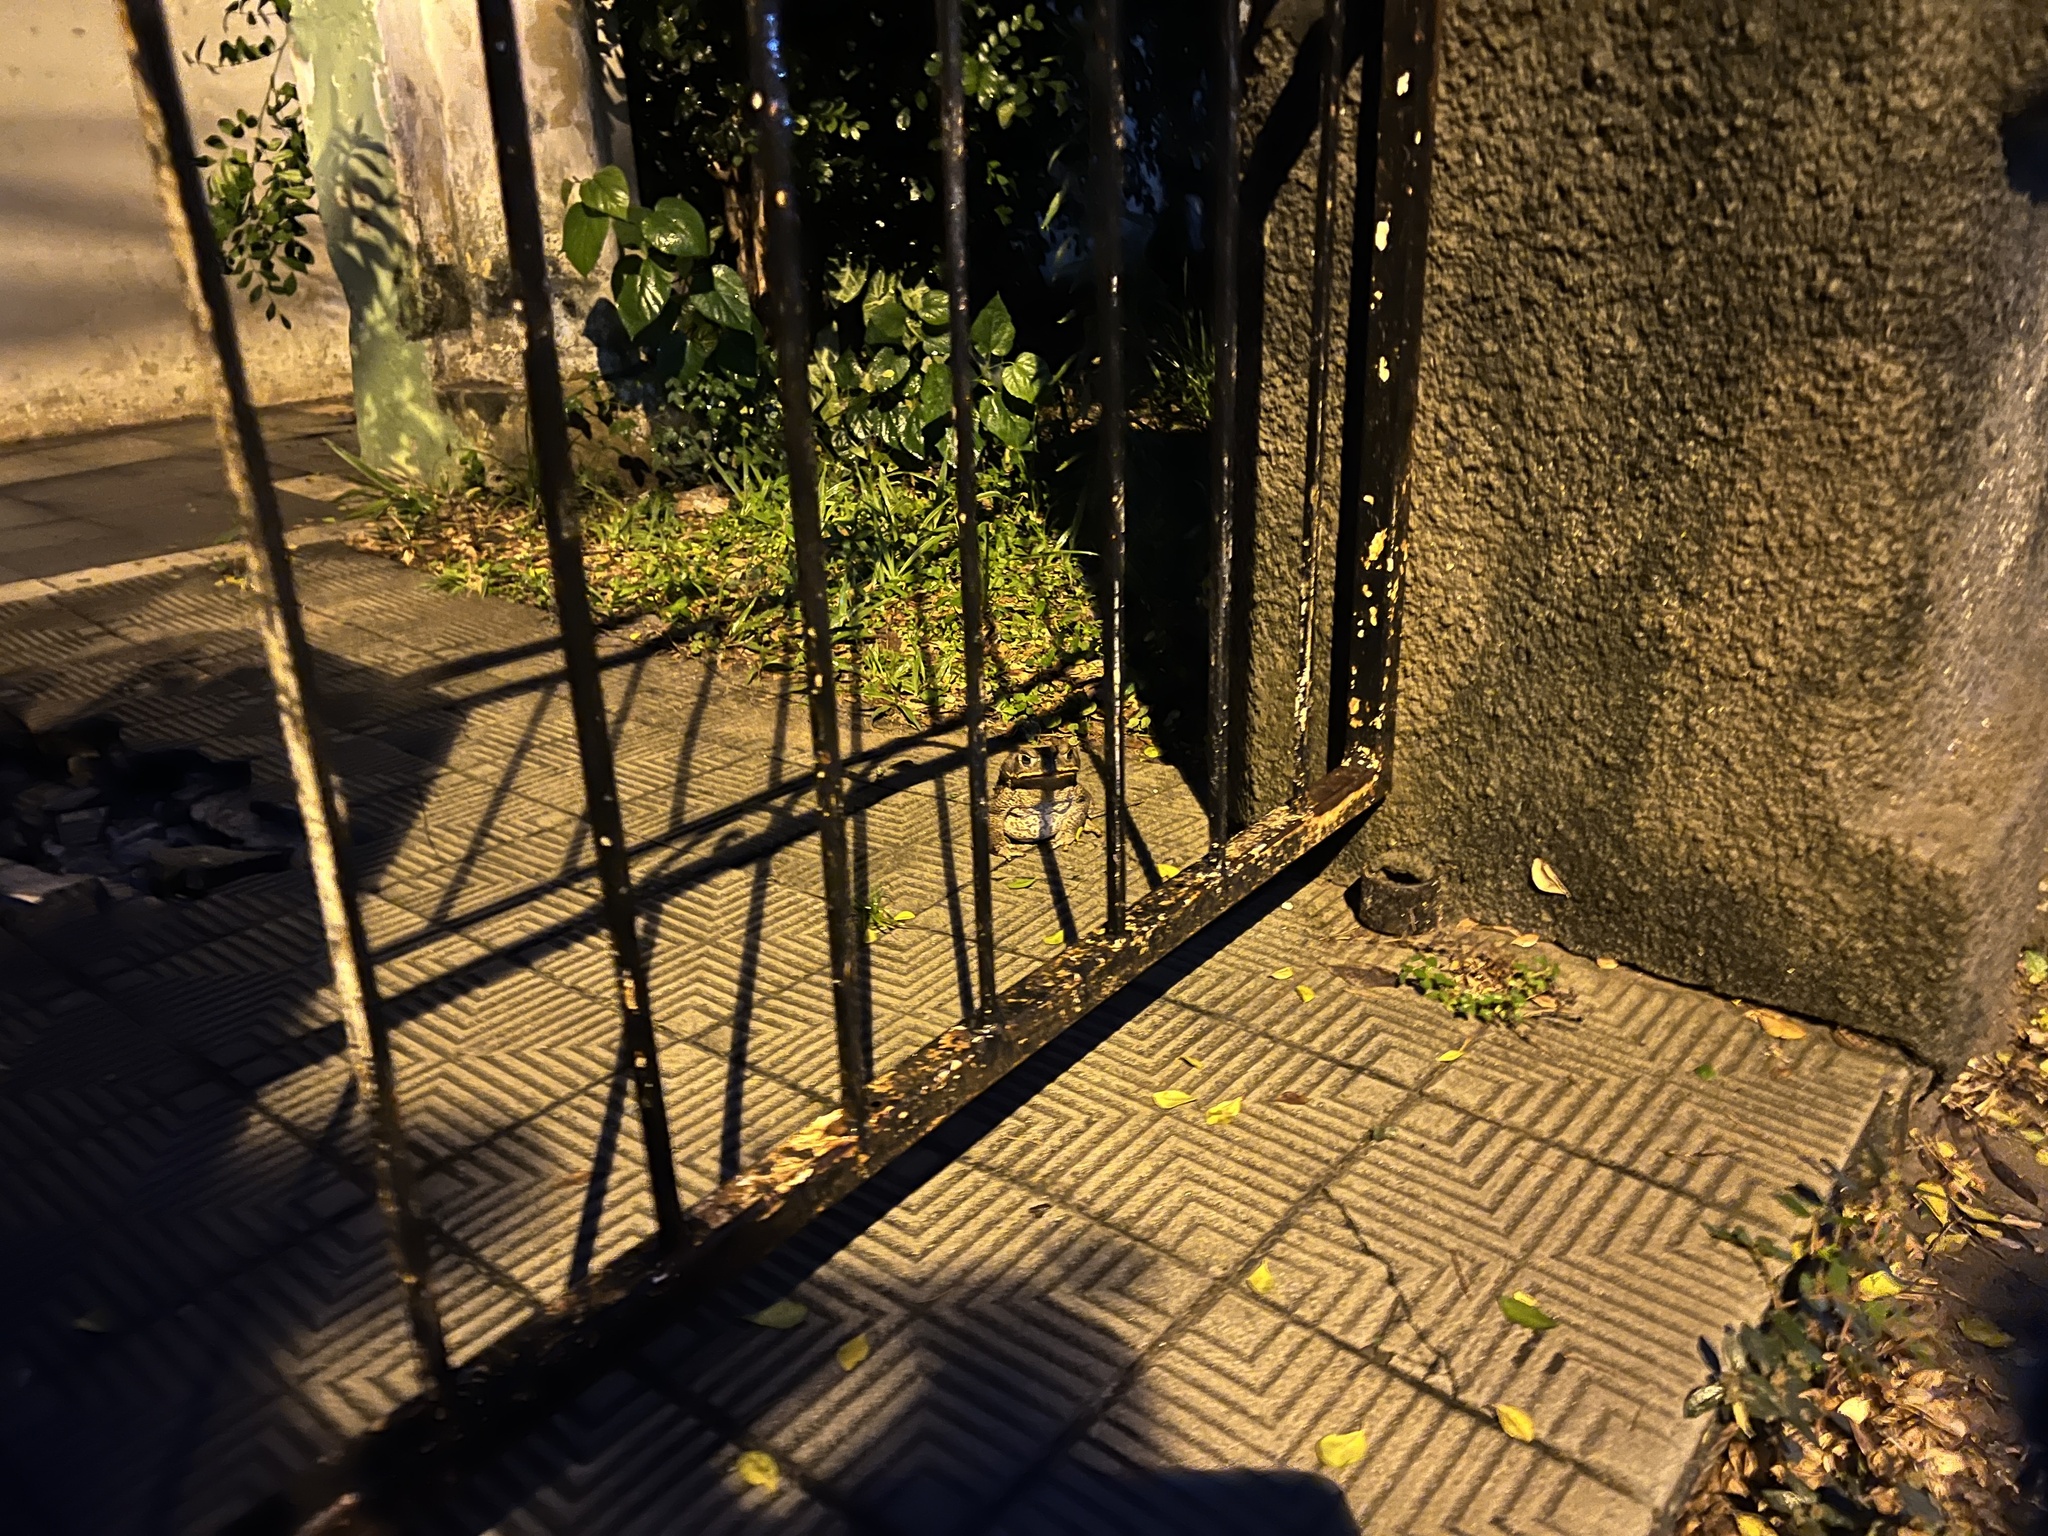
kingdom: Animalia
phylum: Chordata
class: Amphibia
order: Anura
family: Bufonidae
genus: Rhinella
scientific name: Rhinella diptycha
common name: Cope's toad
